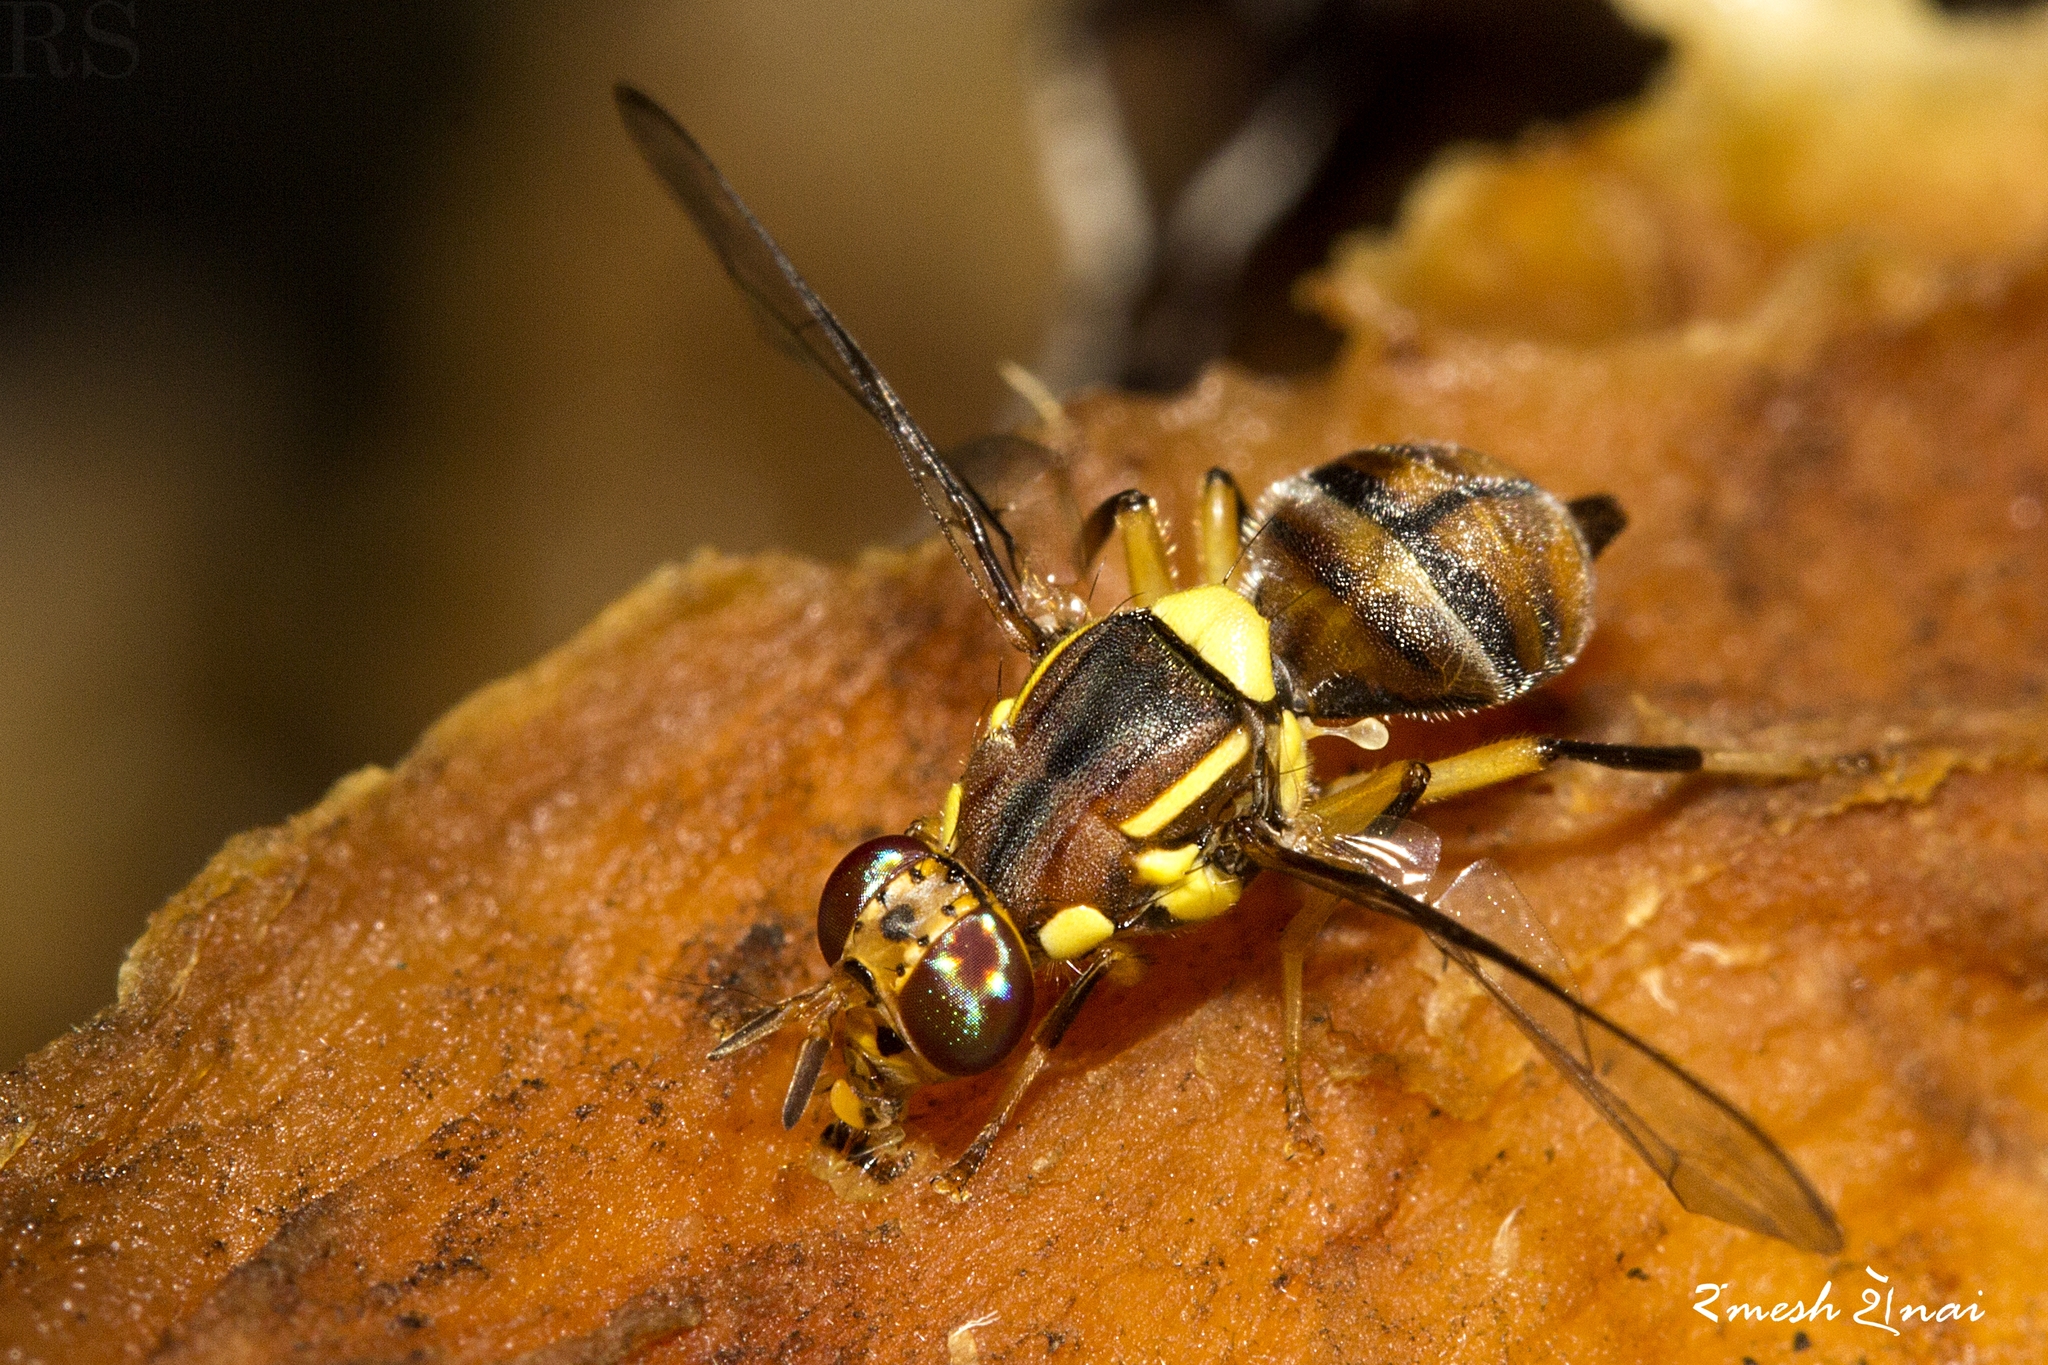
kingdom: Animalia
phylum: Arthropoda
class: Insecta
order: Diptera
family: Tephritidae
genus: Bactrocera
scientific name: Bactrocera dorsalis
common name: Oriental fruit fly
